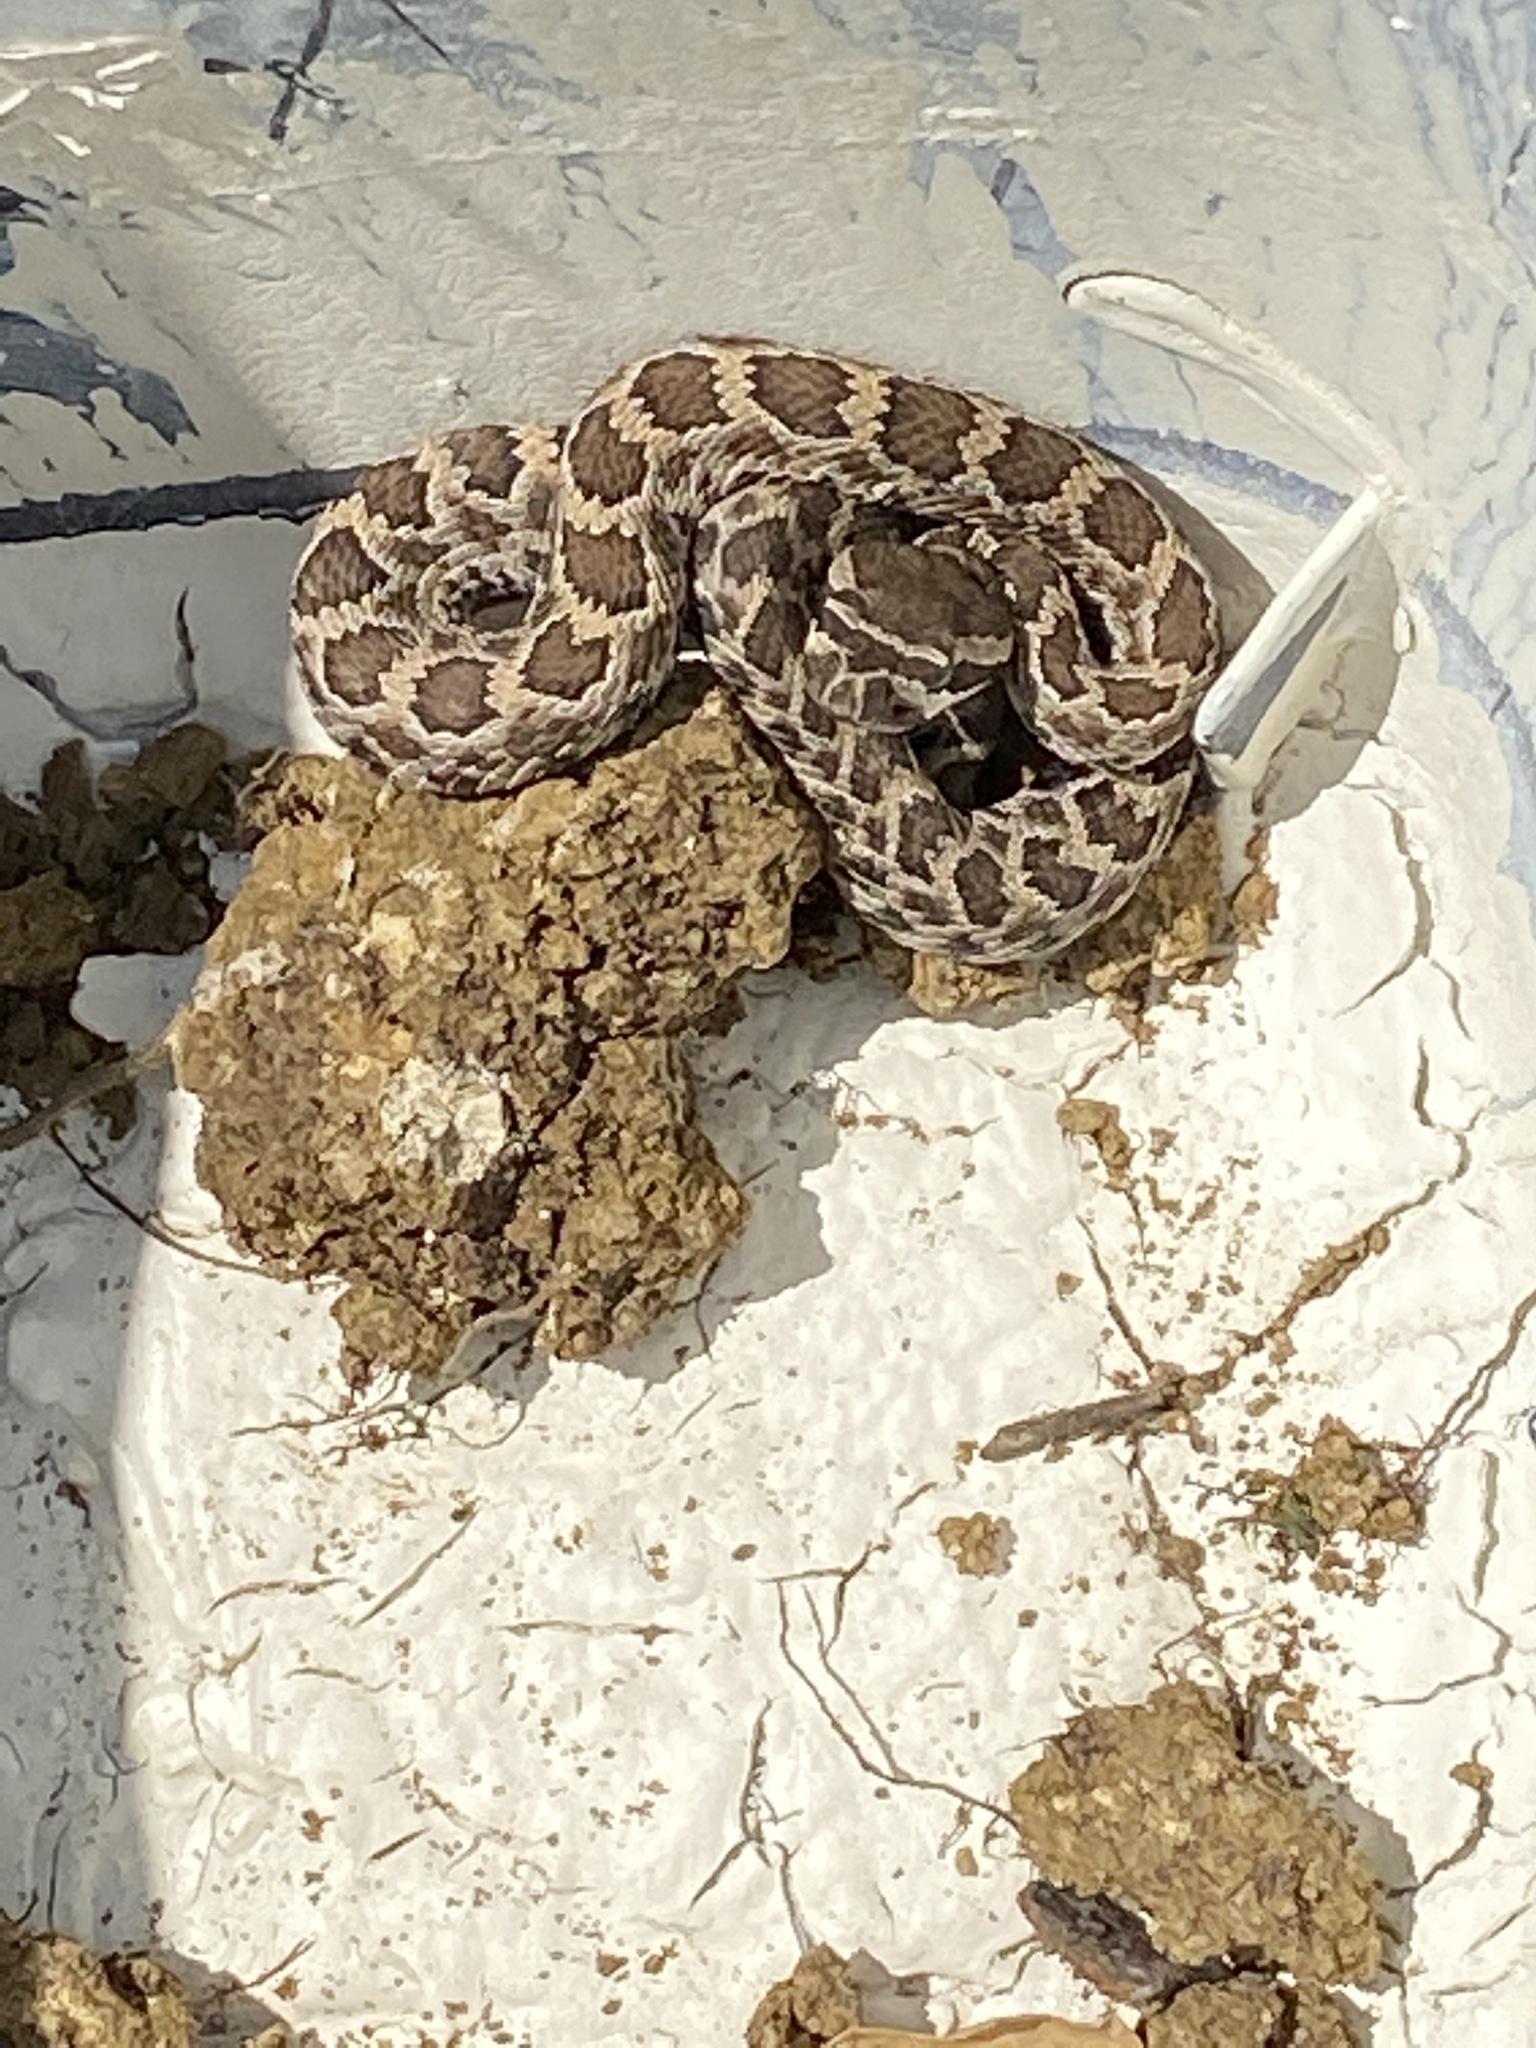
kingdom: Animalia
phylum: Chordata
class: Squamata
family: Viperidae
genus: Crotalus
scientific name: Crotalus oreganus
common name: Abyssus
